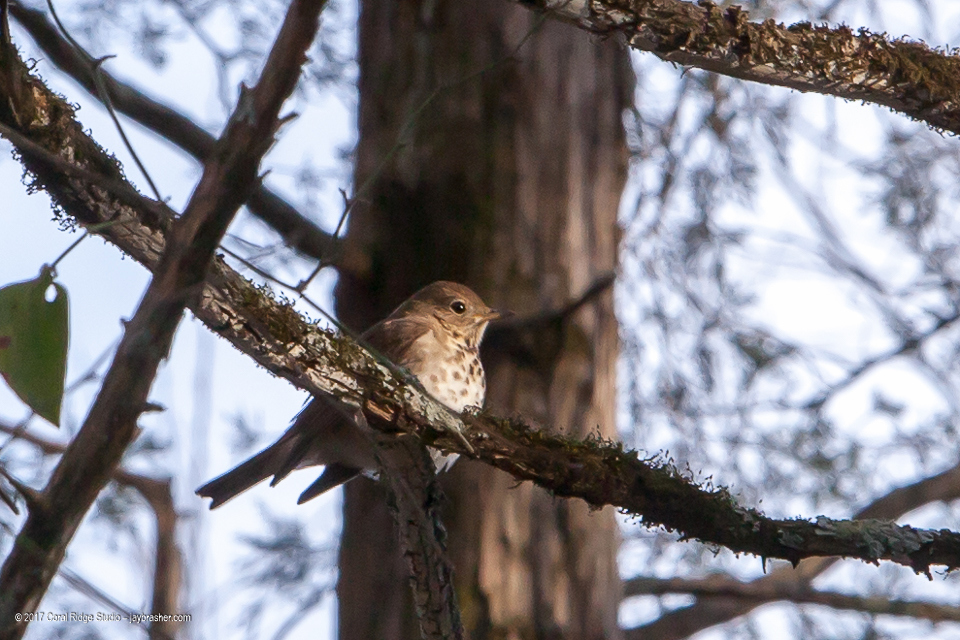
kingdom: Animalia
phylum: Chordata
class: Aves
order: Passeriformes
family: Turdidae
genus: Catharus
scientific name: Catharus guttatus
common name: Hermit thrush
